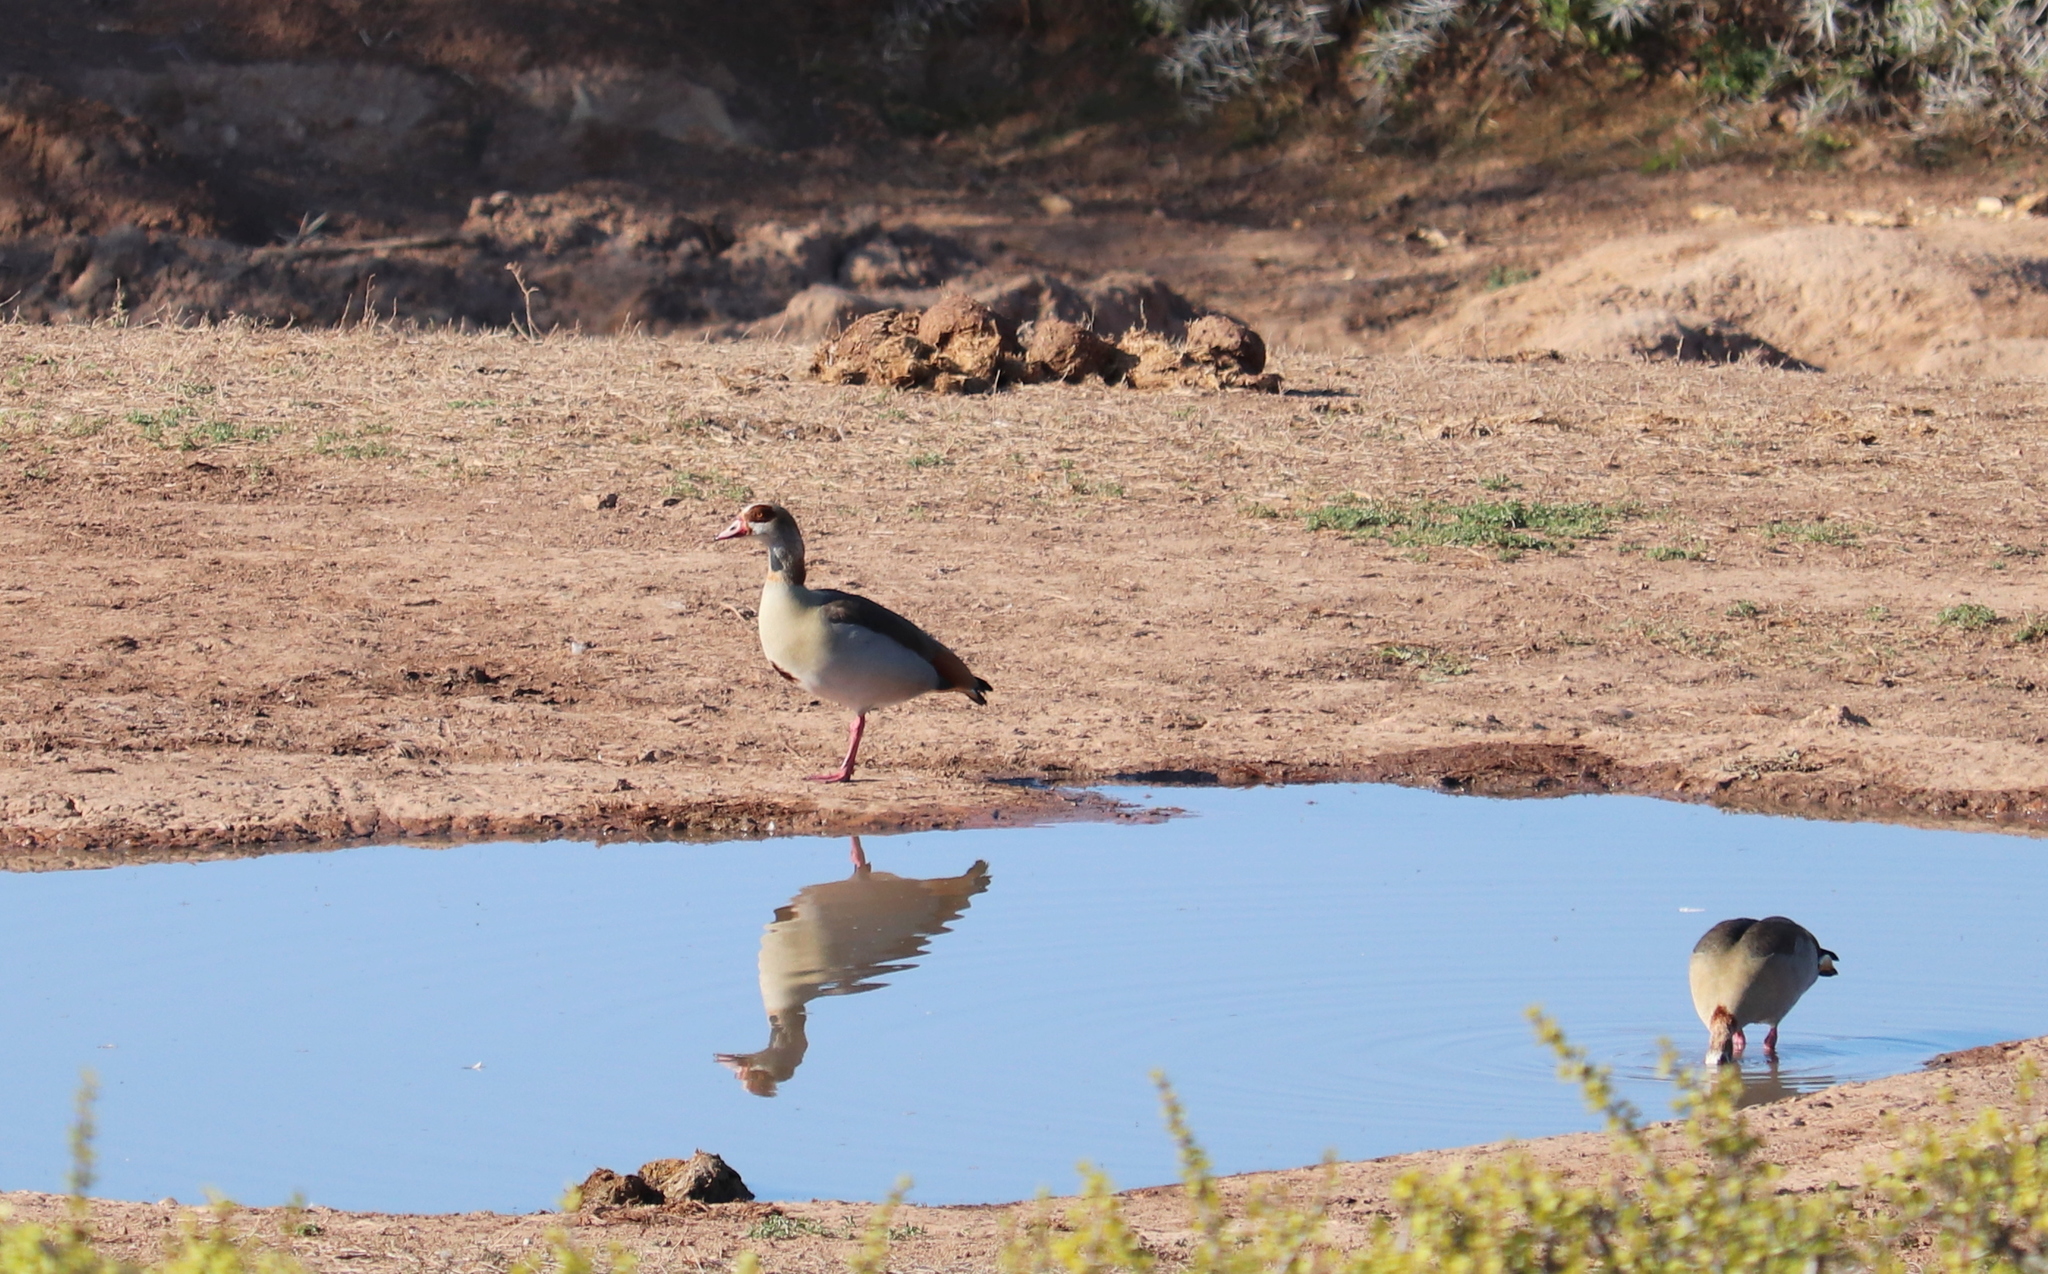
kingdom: Animalia
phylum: Chordata
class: Aves
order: Anseriformes
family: Anatidae
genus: Alopochen
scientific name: Alopochen aegyptiaca
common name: Egyptian goose
